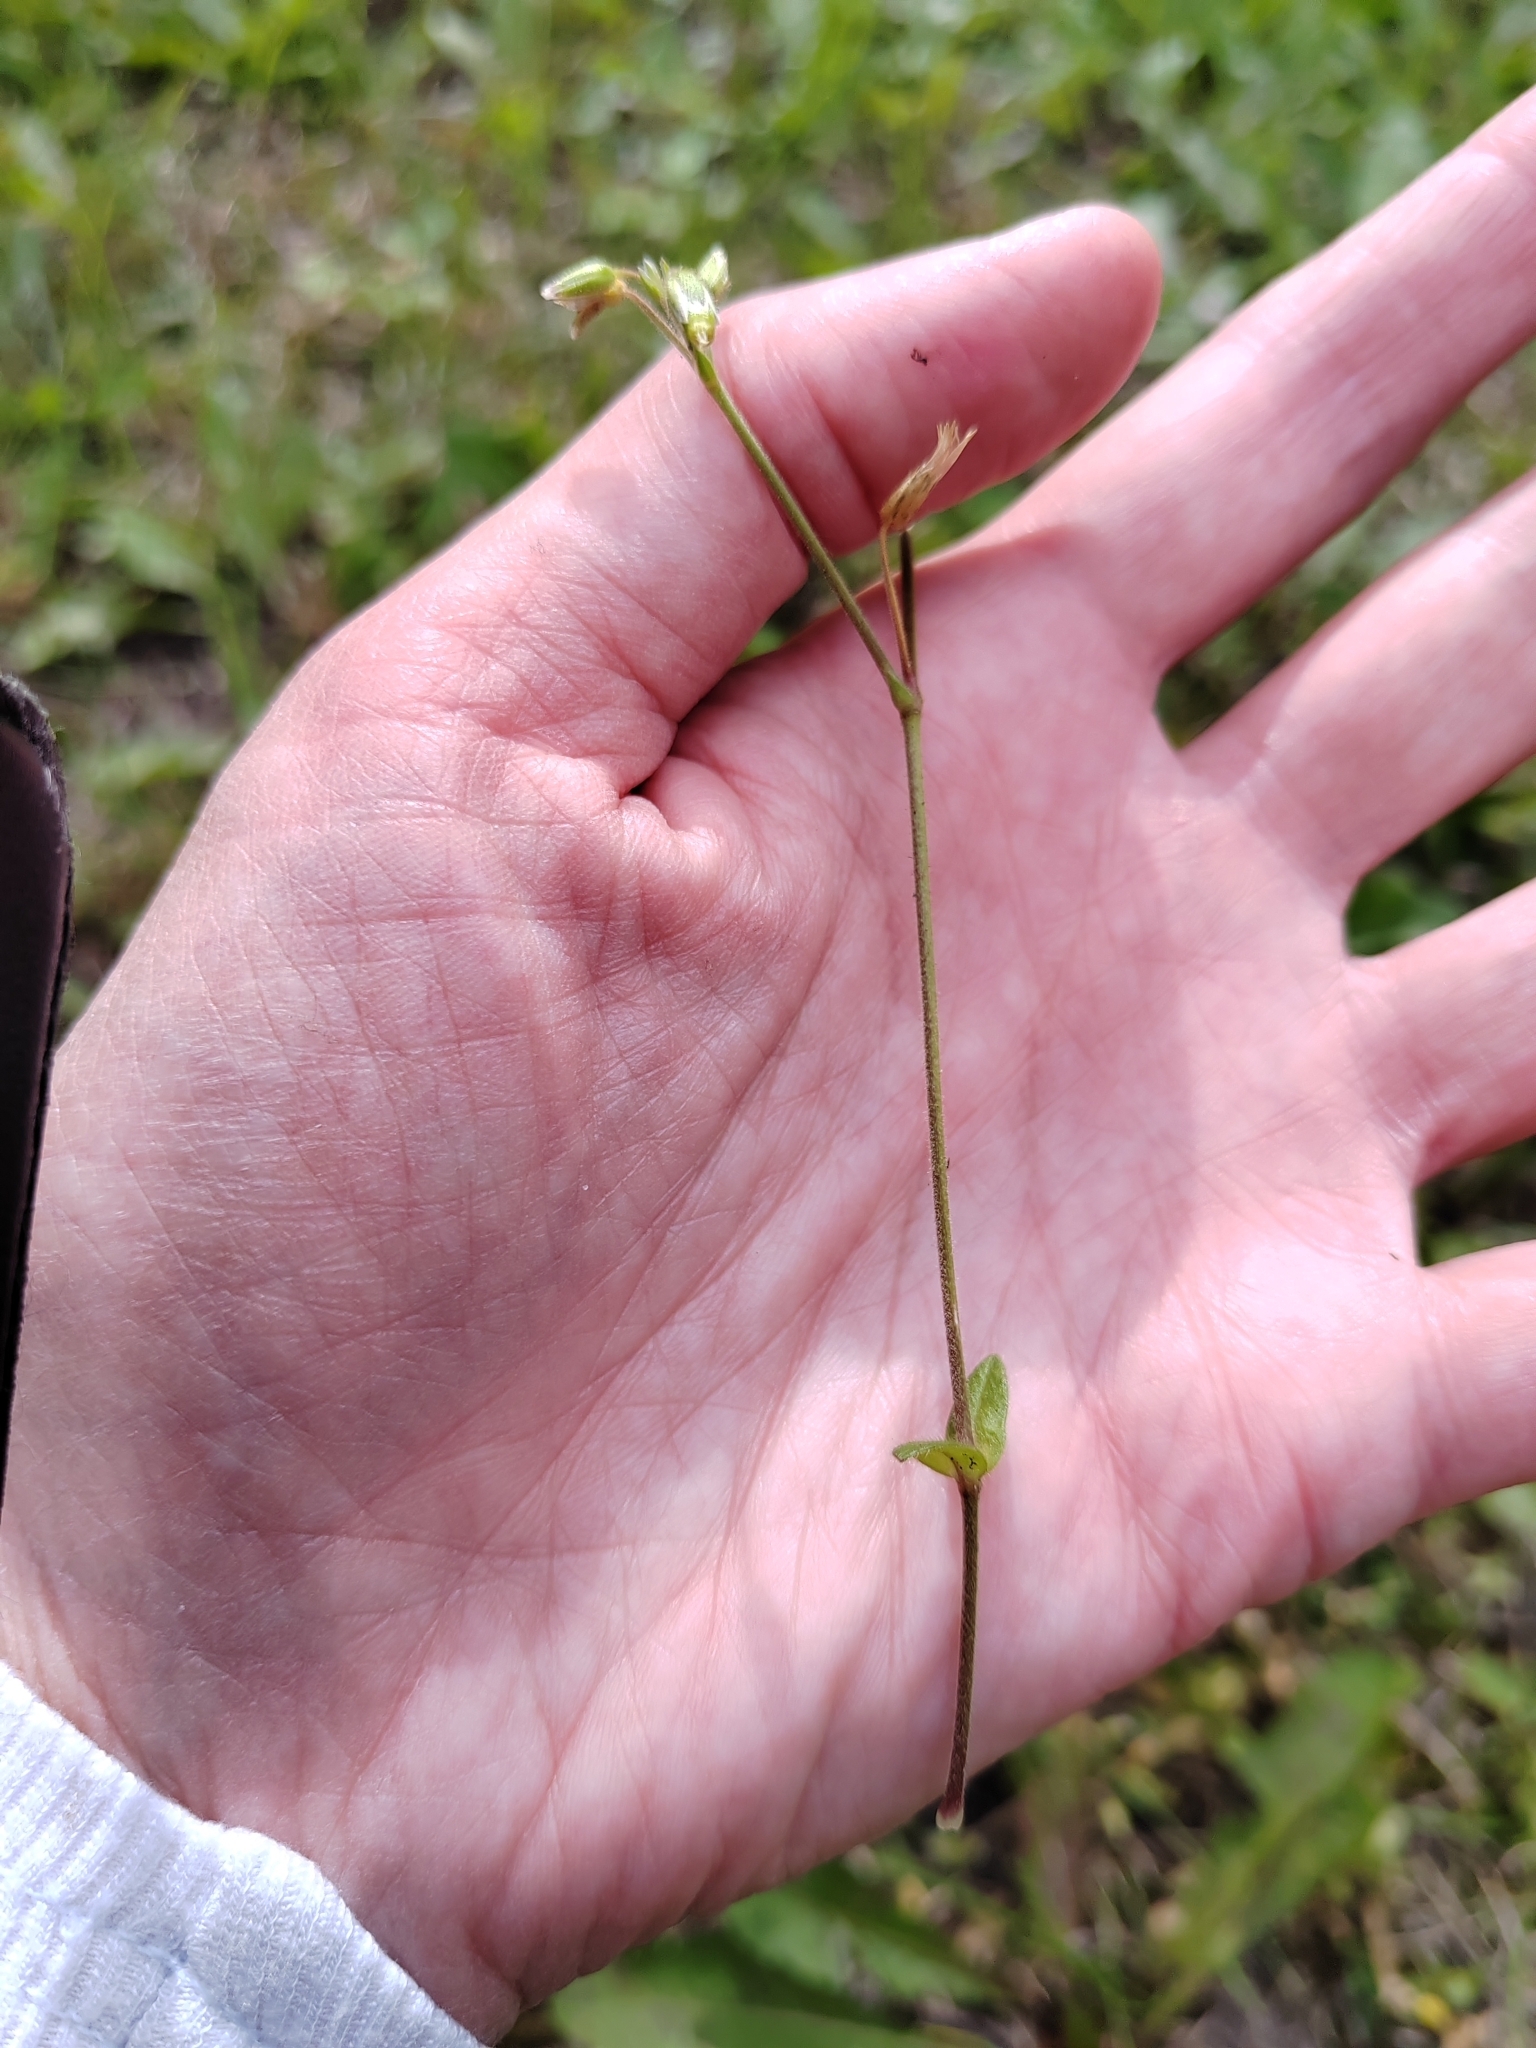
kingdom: Plantae
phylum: Tracheophyta
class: Magnoliopsida
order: Caryophyllales
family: Caryophyllaceae
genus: Cerastium
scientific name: Cerastium holosteoides
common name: Big chickweed
